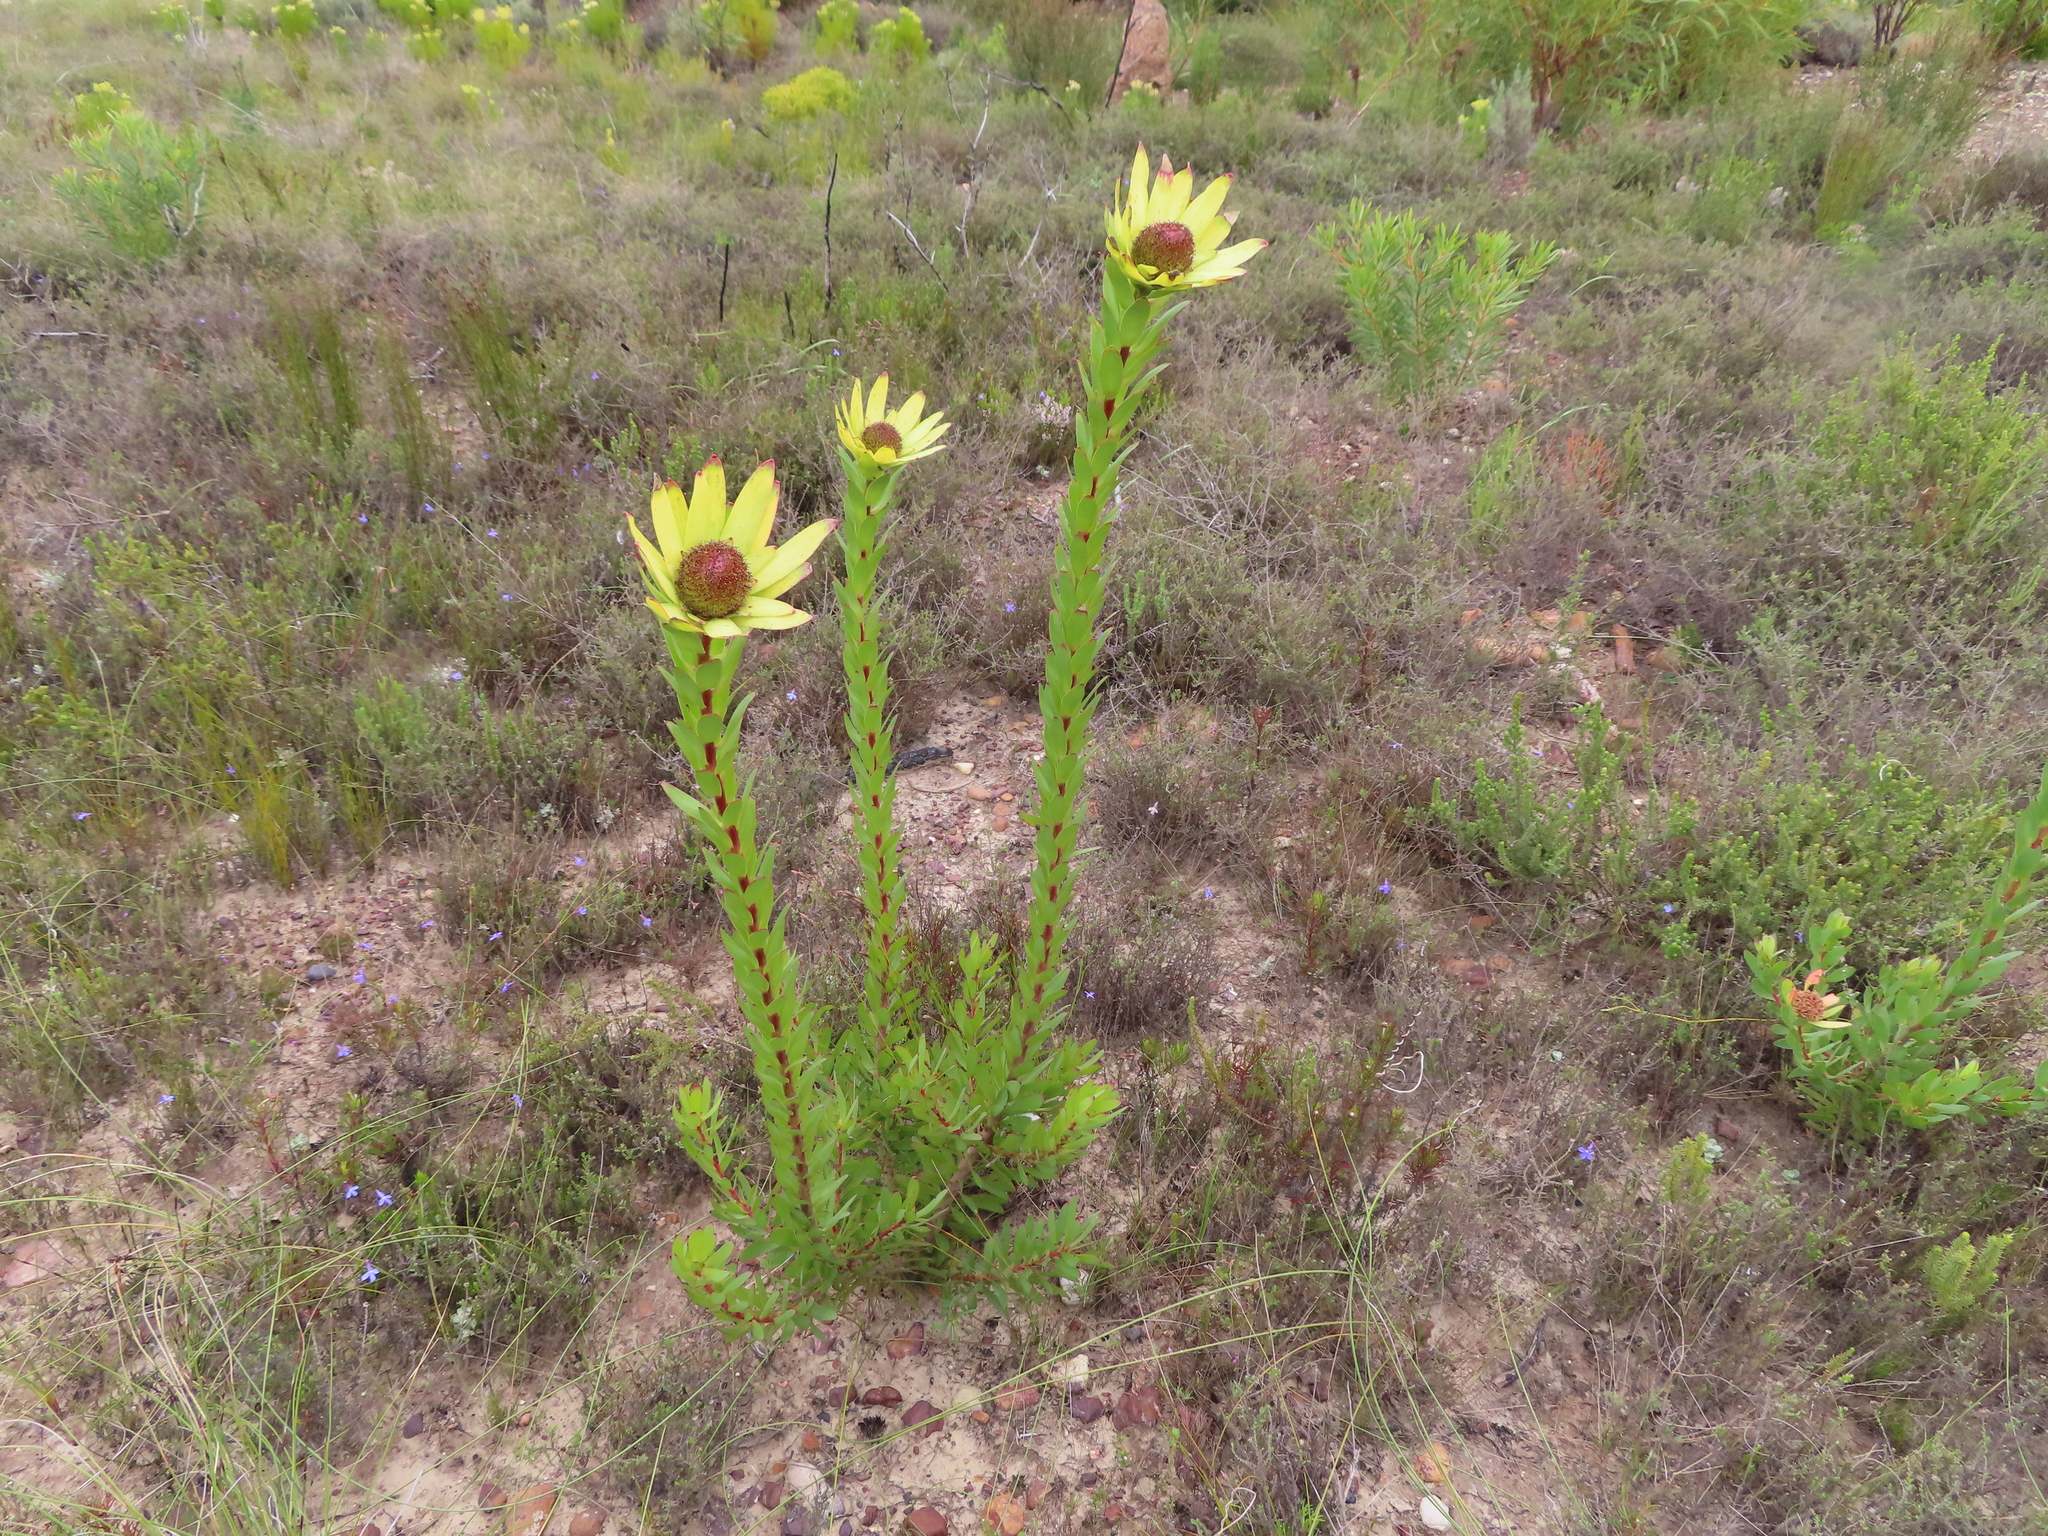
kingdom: Plantae
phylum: Tracheophyta
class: Magnoliopsida
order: Proteales
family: Proteaceae
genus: Leucadendron
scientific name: Leucadendron elimense
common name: Elim conebush
